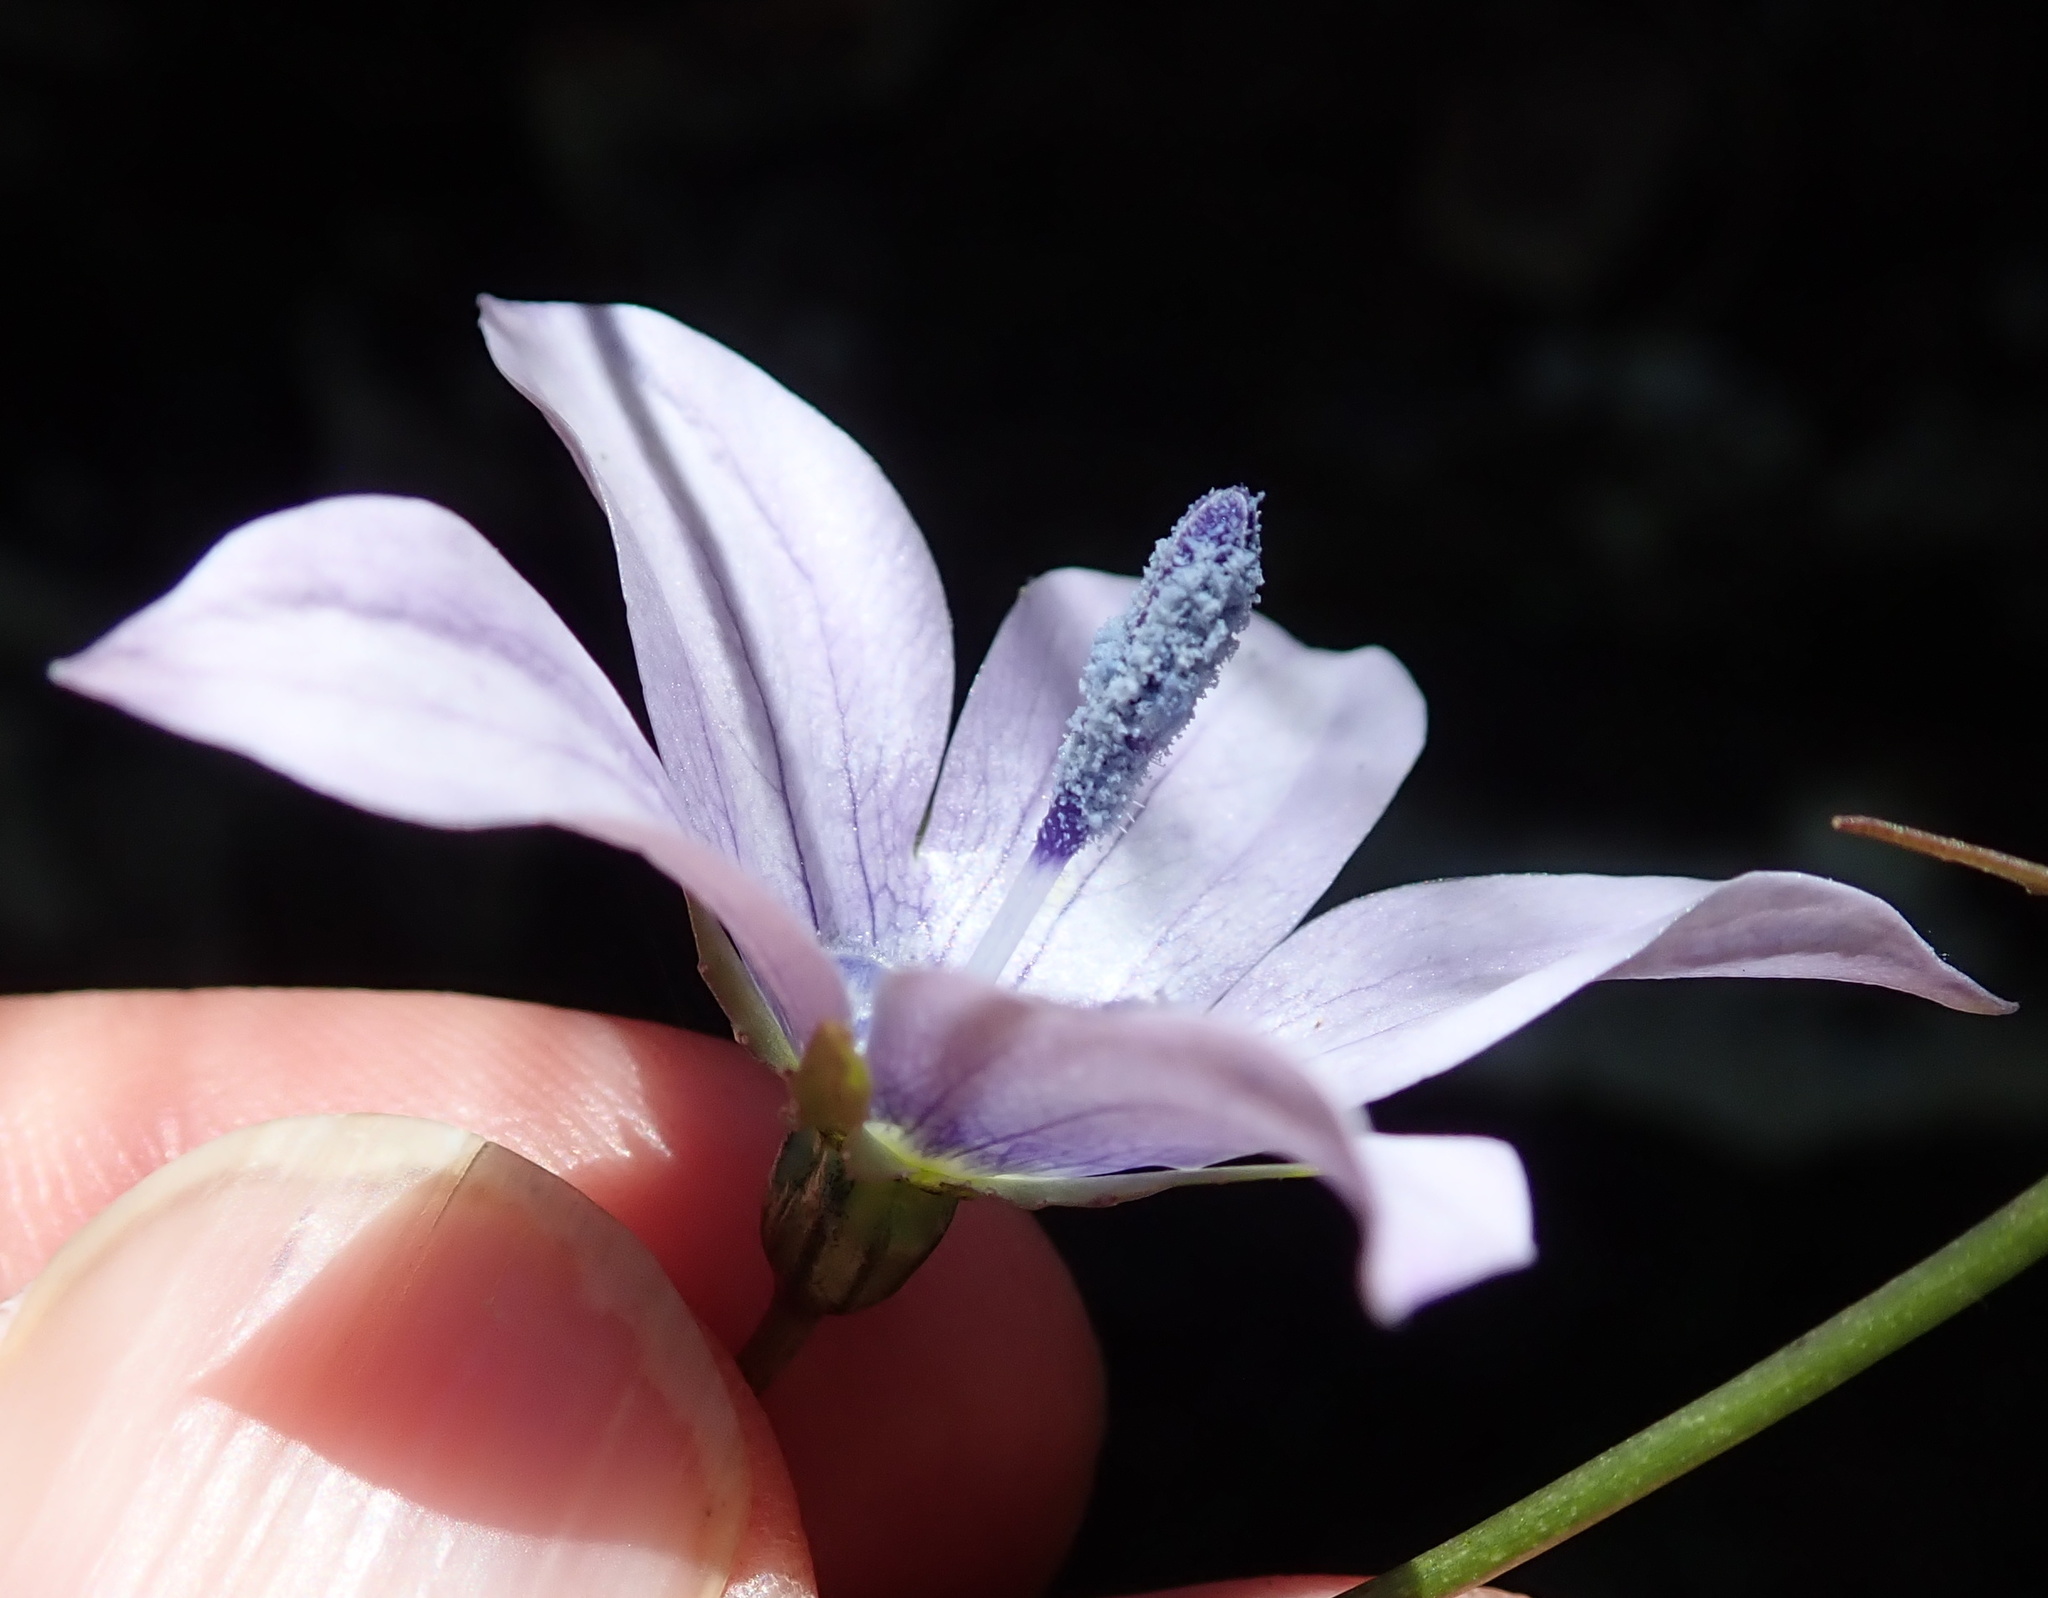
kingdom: Plantae
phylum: Tracheophyta
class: Magnoliopsida
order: Asterales
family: Campanulaceae
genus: Wahlenbergia
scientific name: Wahlenbergia cuspidata
